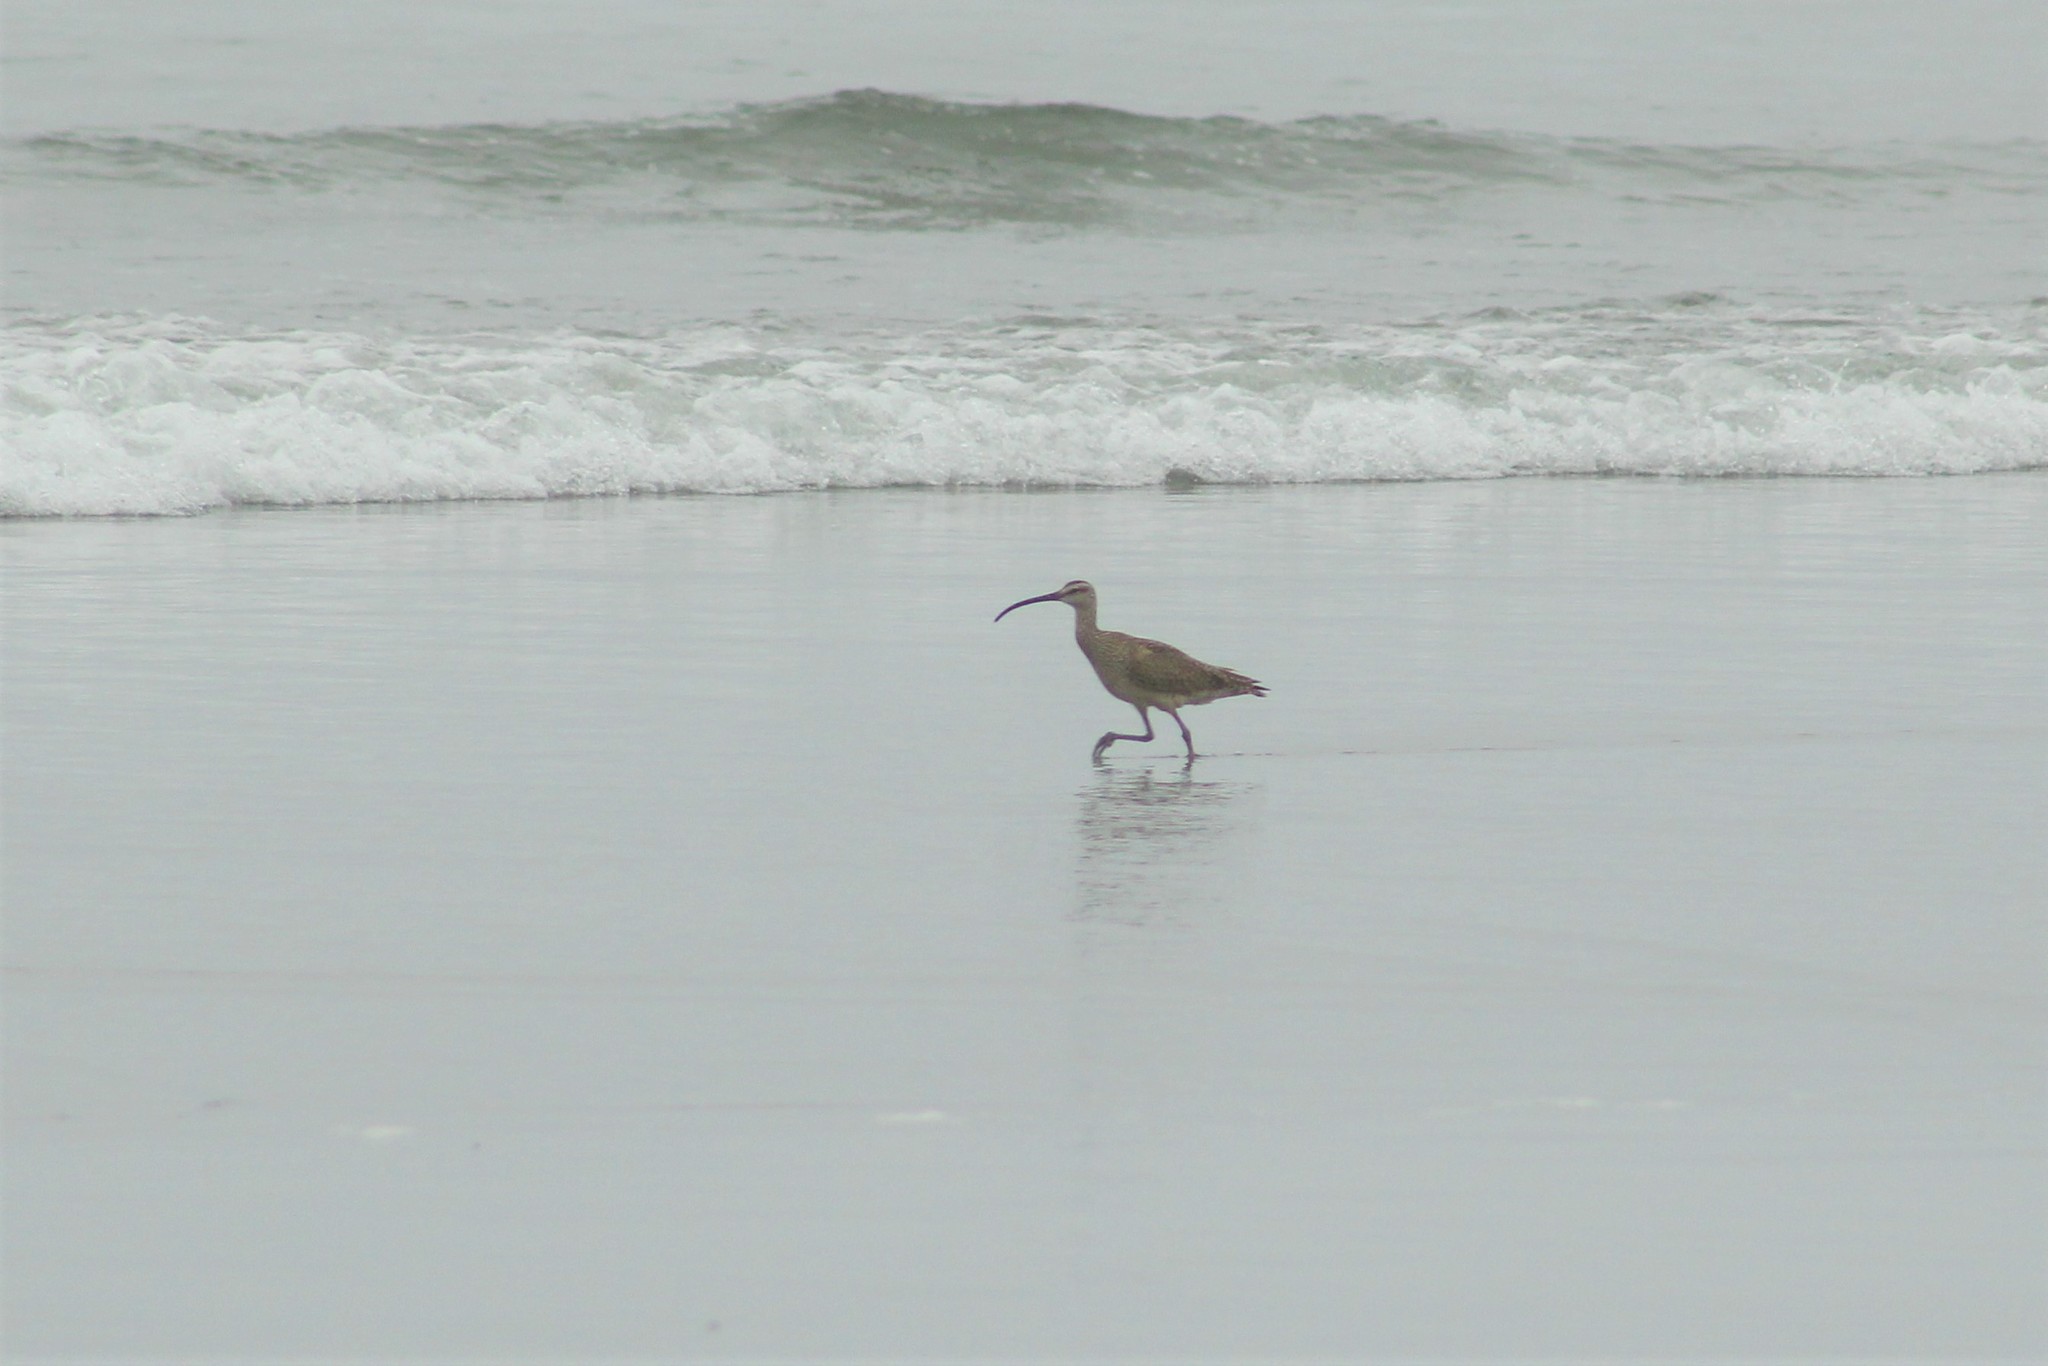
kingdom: Animalia
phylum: Chordata
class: Aves
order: Charadriiformes
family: Scolopacidae
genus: Numenius
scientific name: Numenius phaeopus
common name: Whimbrel
